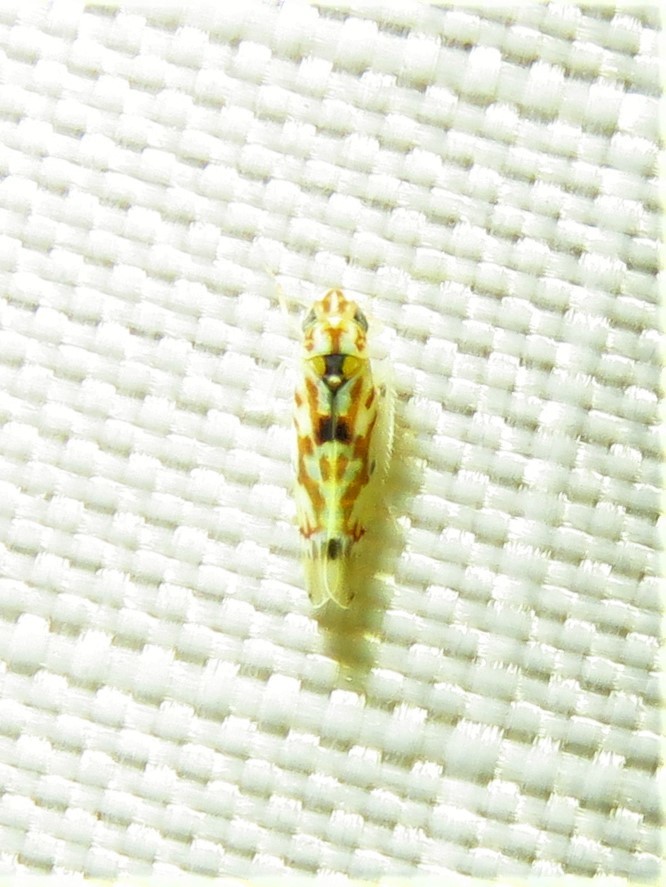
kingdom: Animalia
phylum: Arthropoda
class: Insecta
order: Hemiptera
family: Cicadellidae
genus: Erythroneura
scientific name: Erythroneura octonotata
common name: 8-spotted leafhopper
